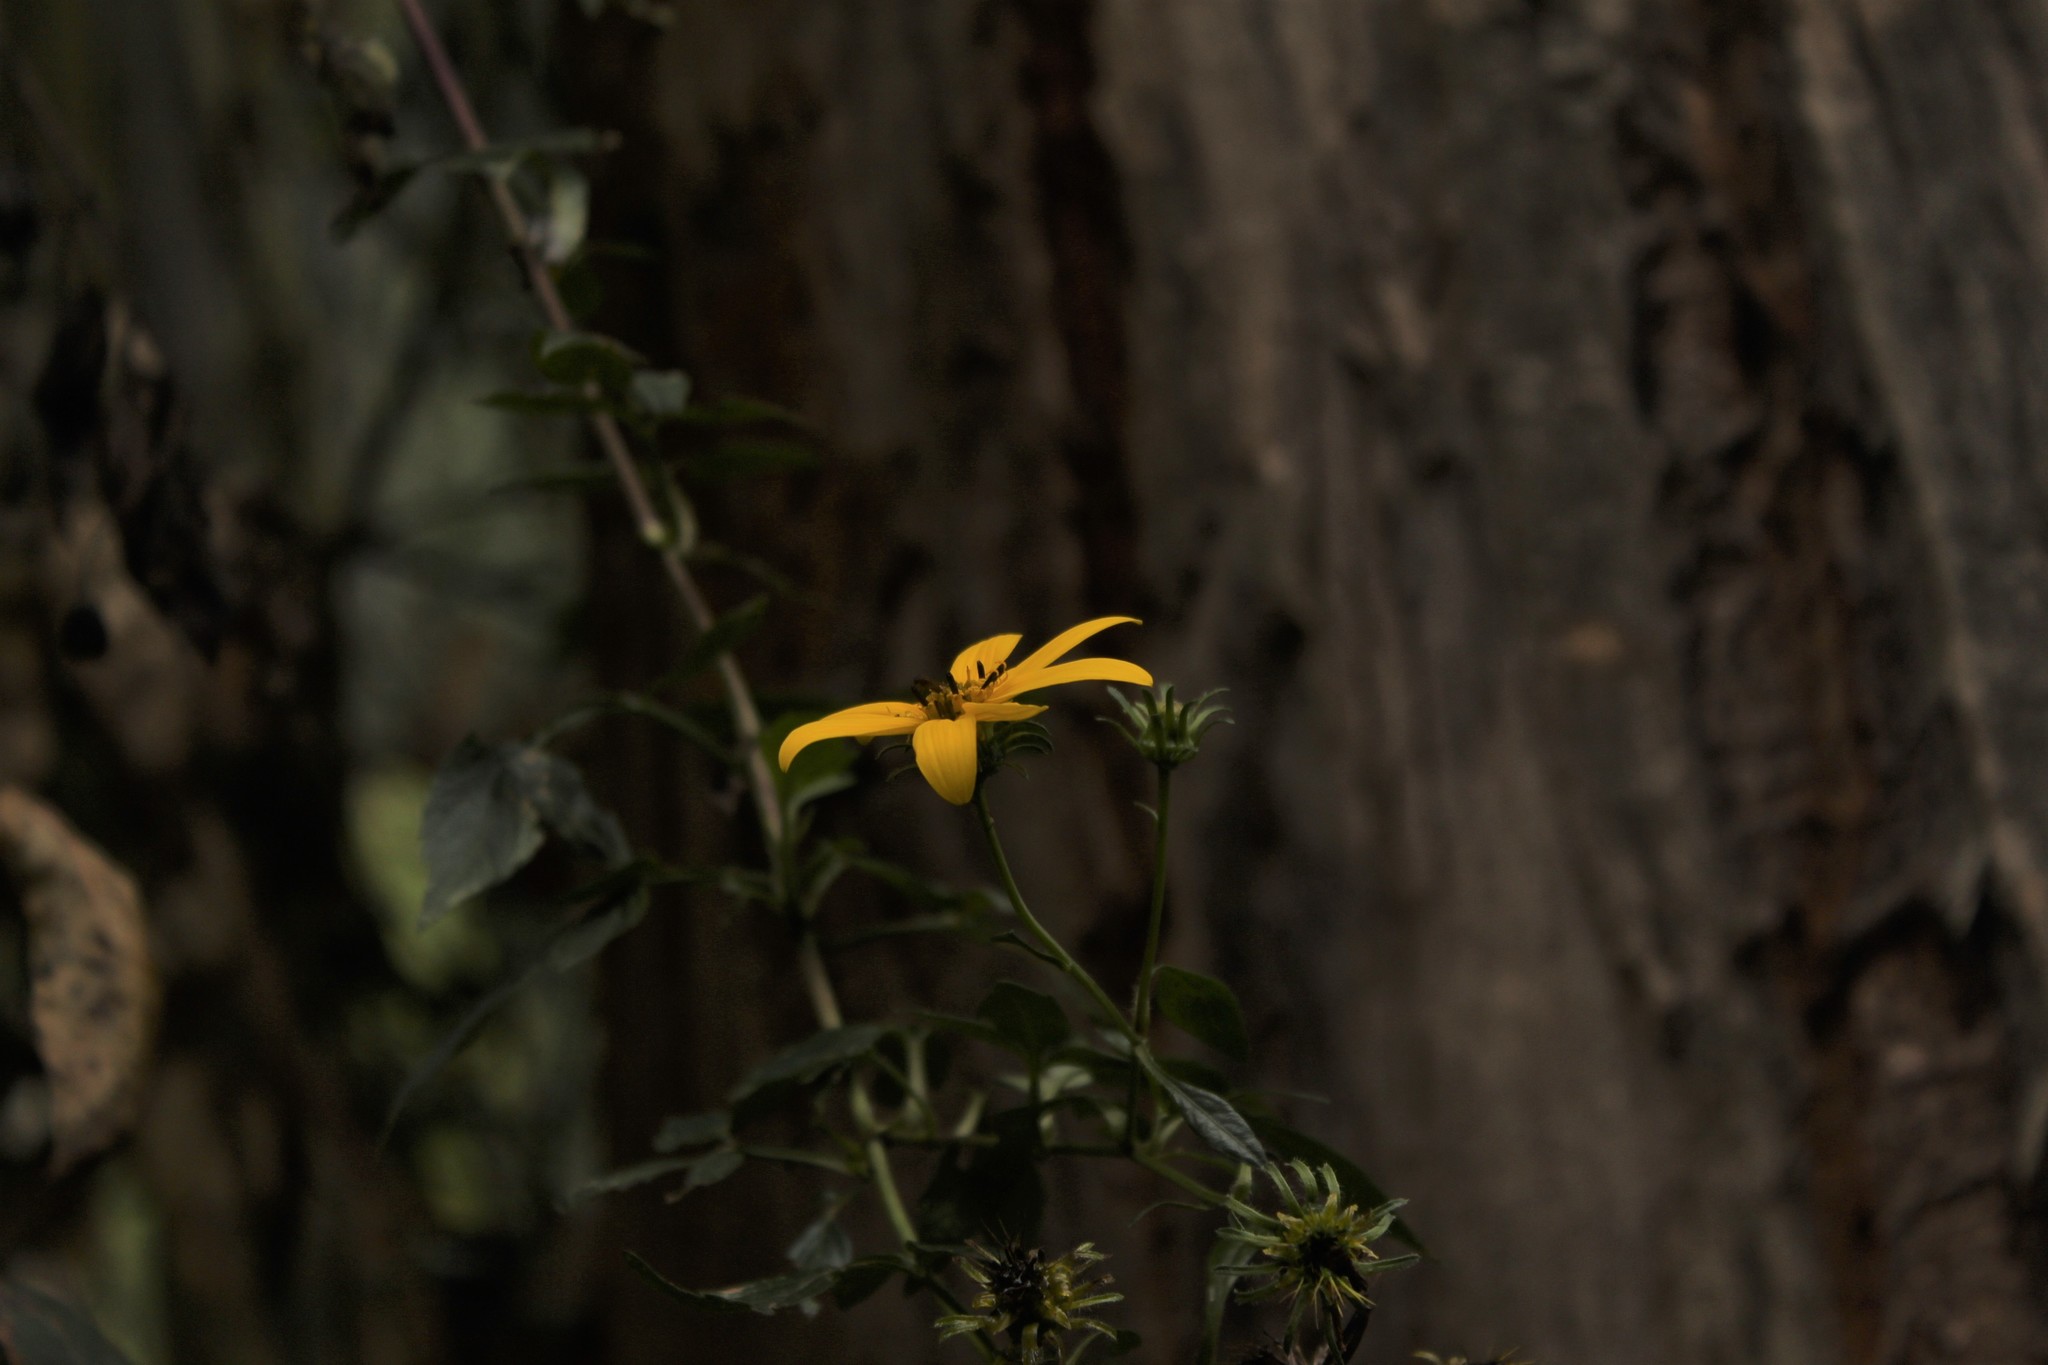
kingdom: Plantae
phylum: Tracheophyta
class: Magnoliopsida
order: Asterales
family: Asteraceae
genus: Bidens
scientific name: Bidens rubifolia
